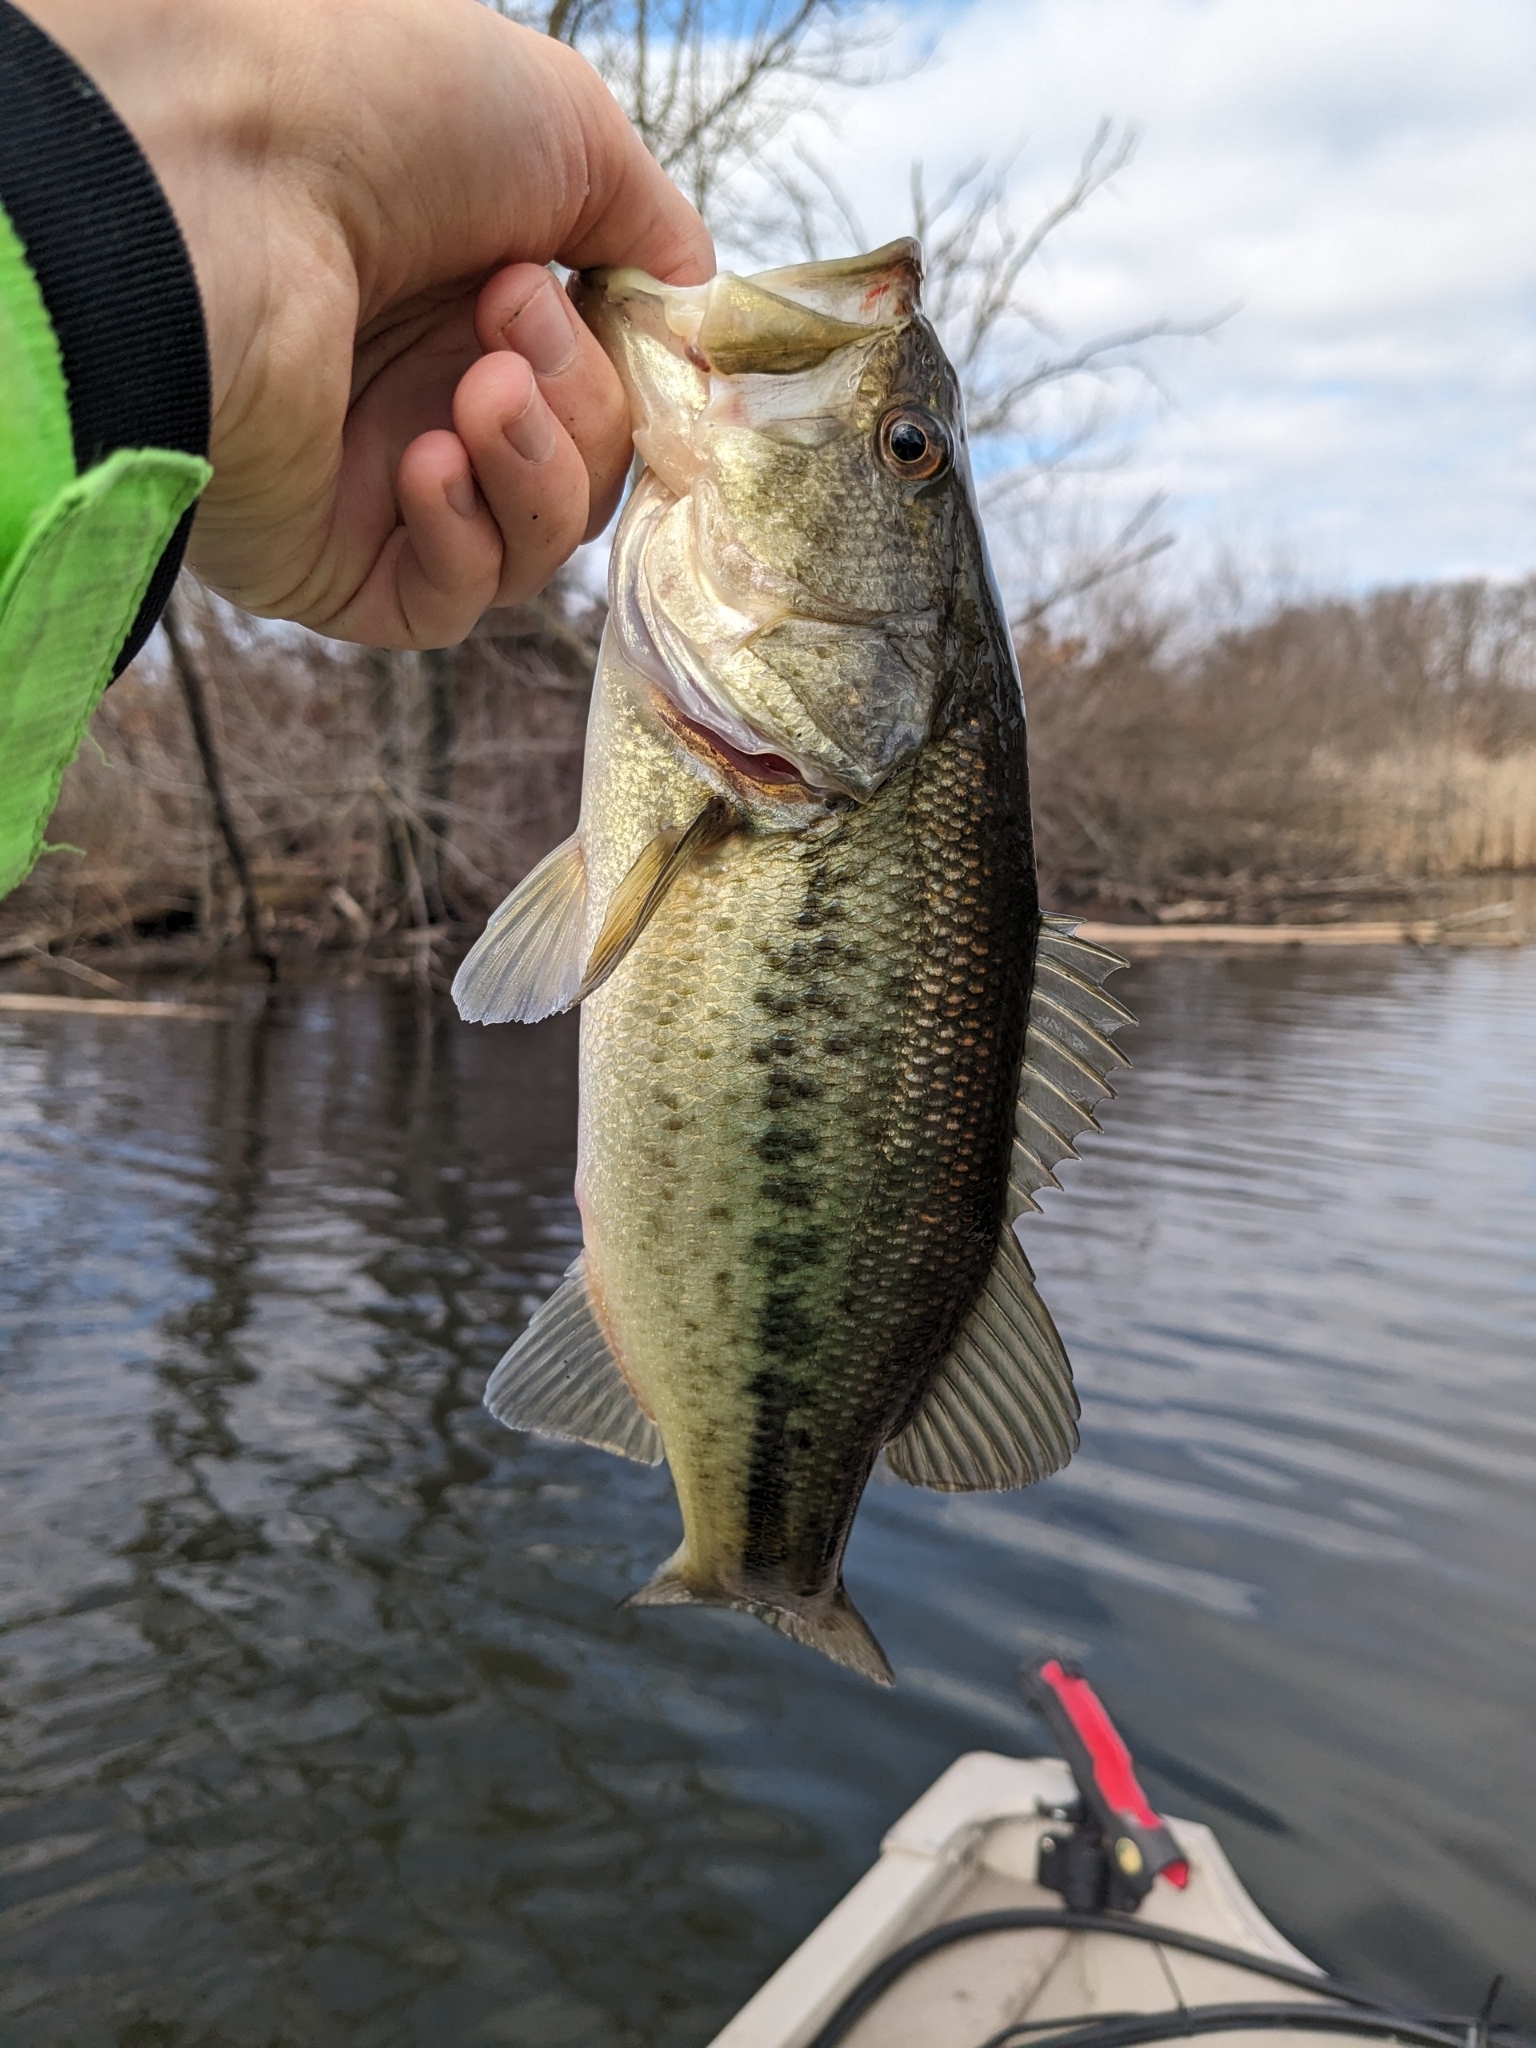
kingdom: Animalia
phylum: Chordata
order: Perciformes
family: Centrarchidae
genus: Micropterus
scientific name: Micropterus
